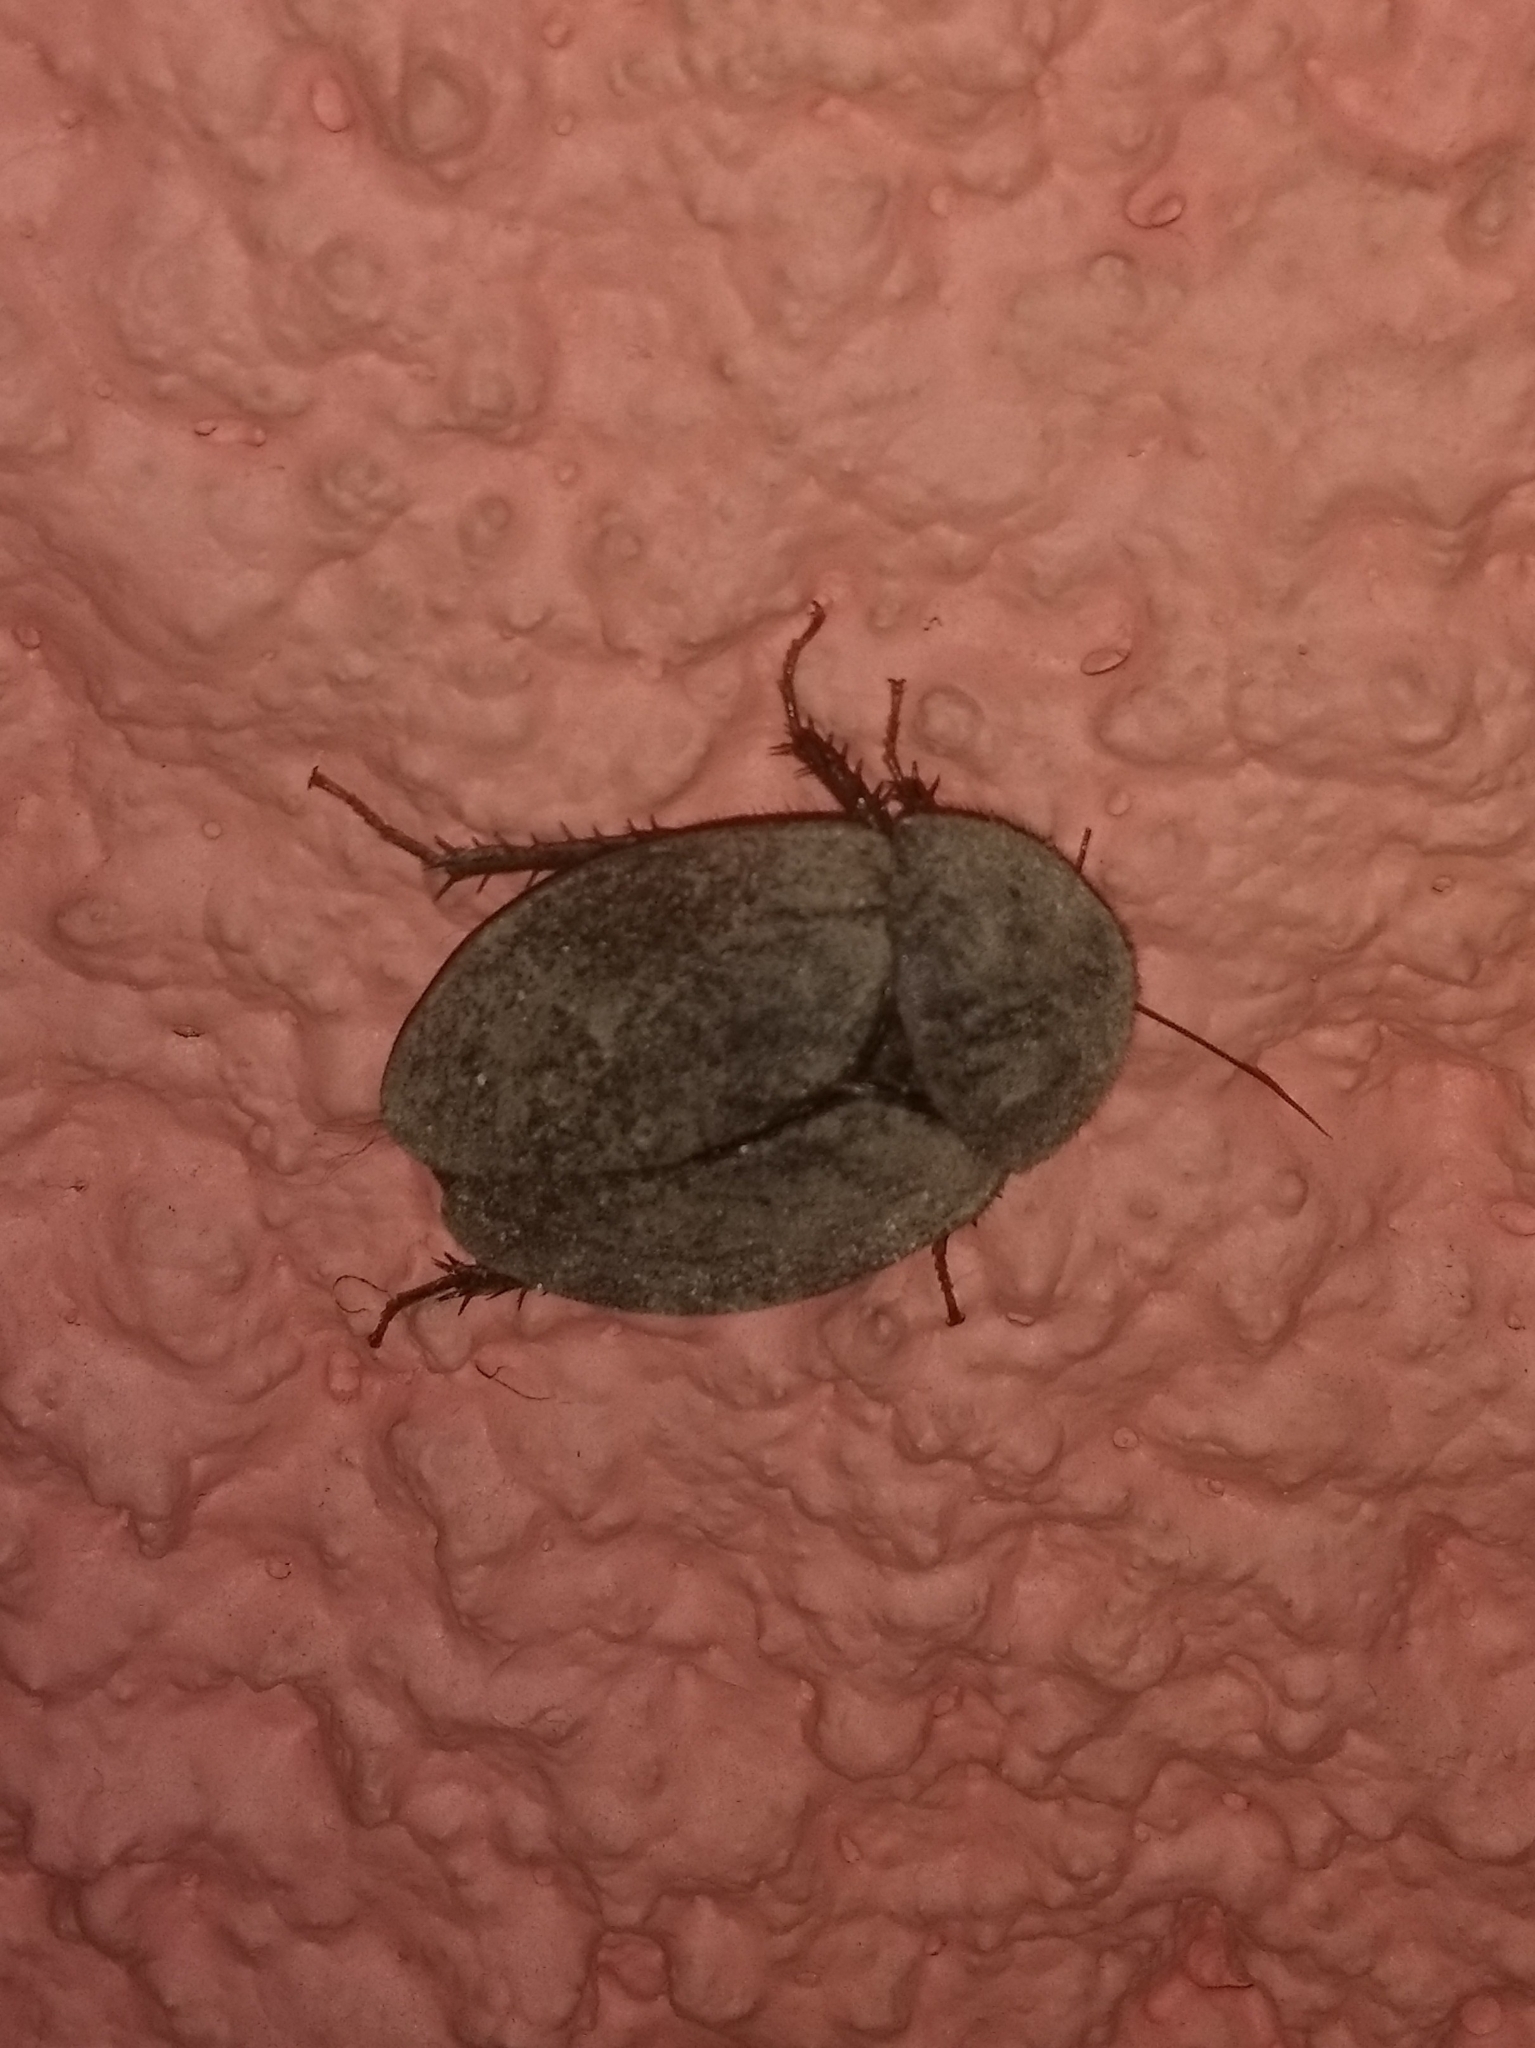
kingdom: Animalia
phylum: Arthropoda
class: Insecta
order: Blattodea
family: Corydiidae
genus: Homoeogamia
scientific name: Homoeogamia mexicana
